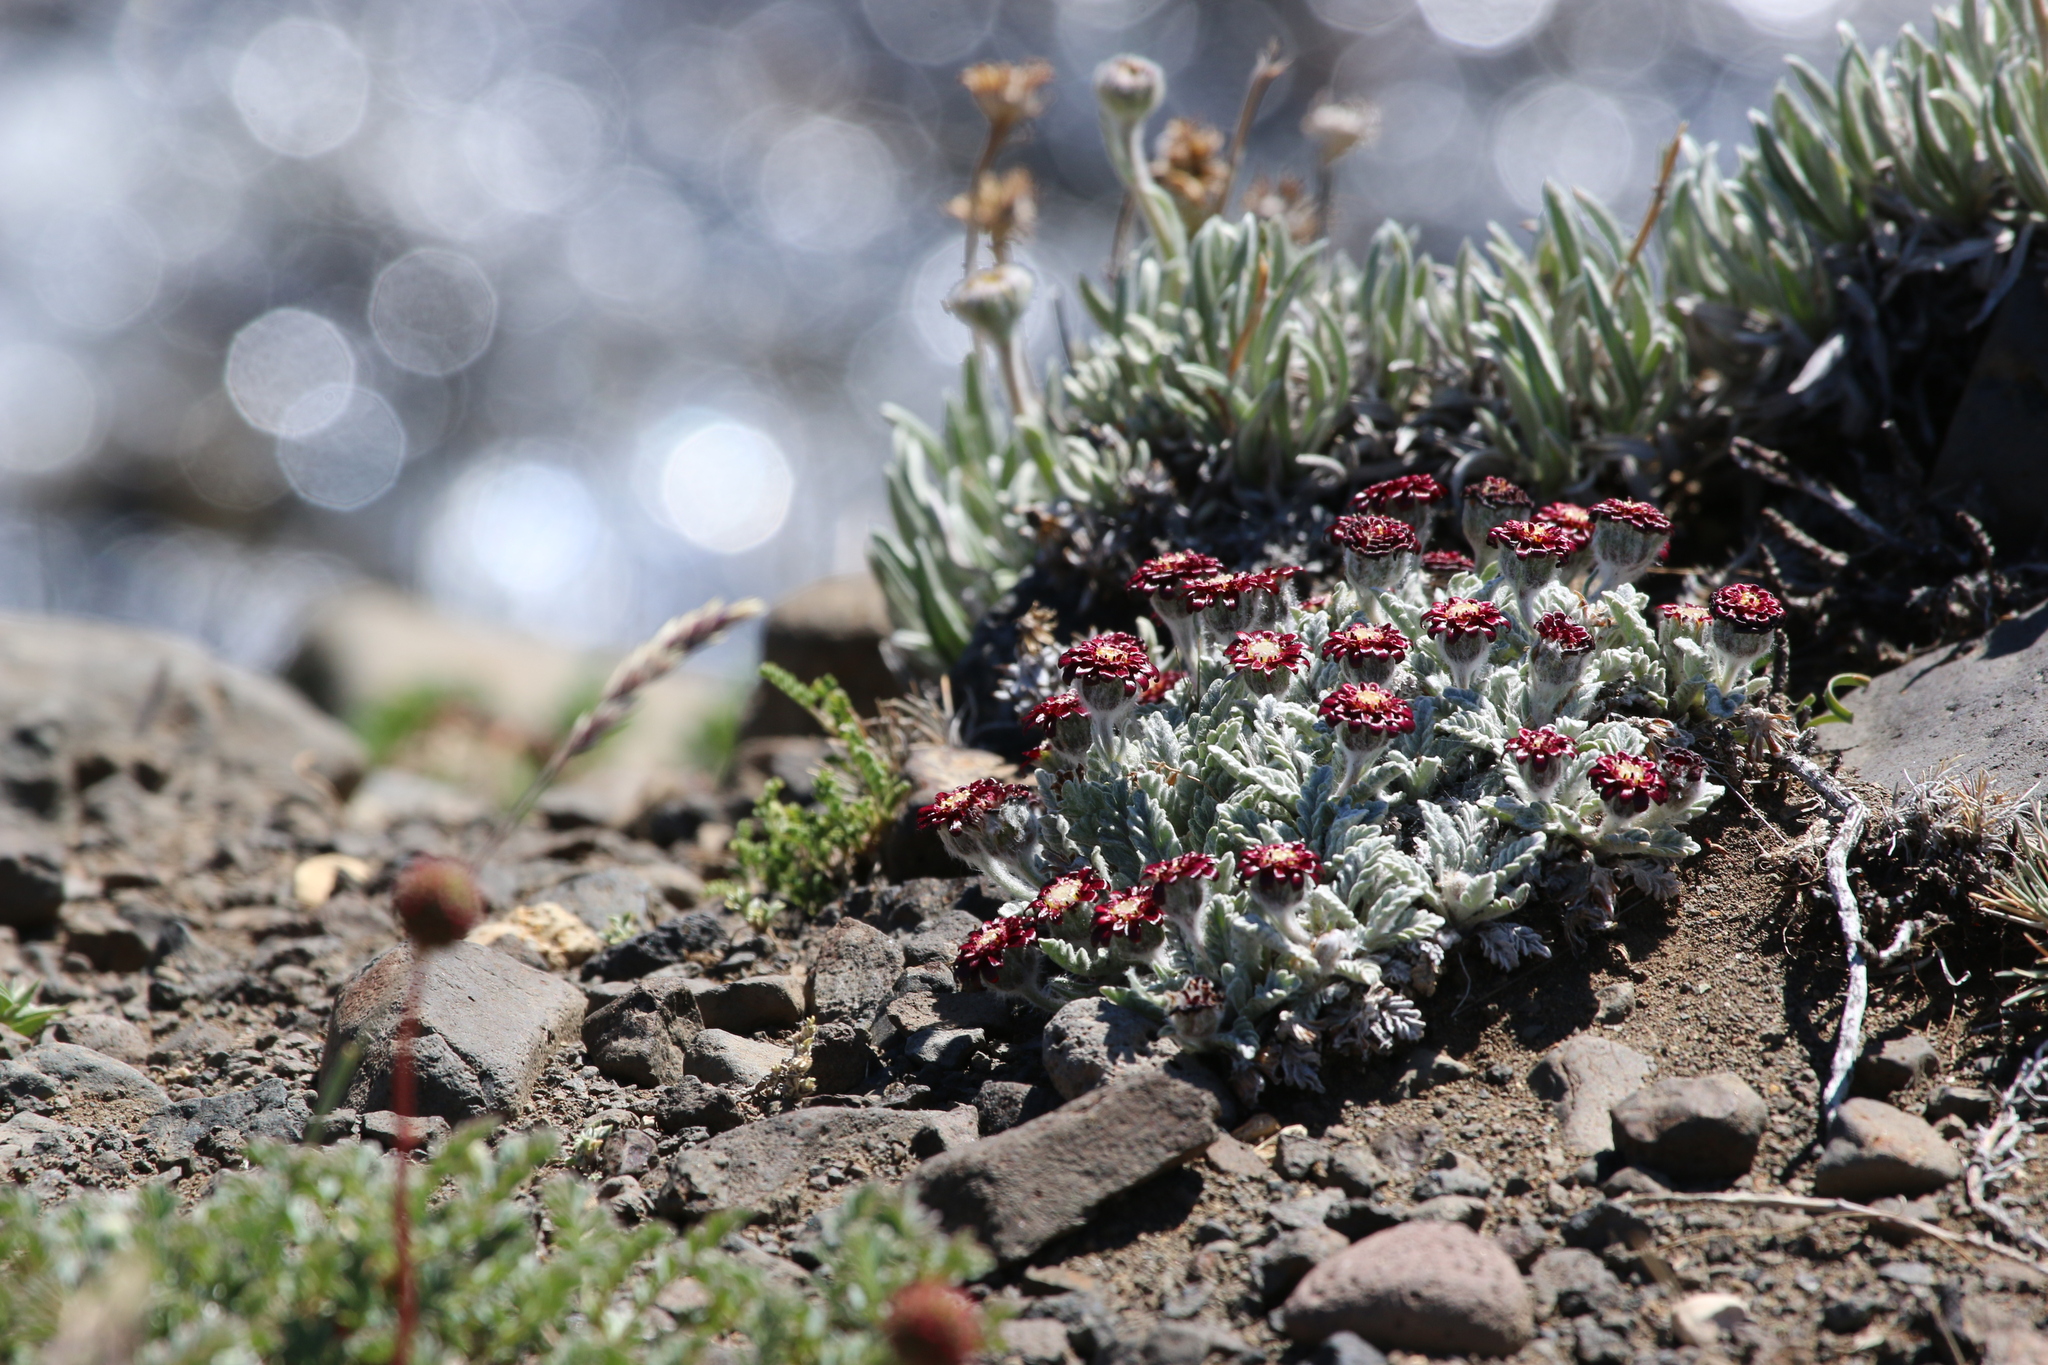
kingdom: Plantae
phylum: Tracheophyta
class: Magnoliopsida
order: Asterales
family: Asteraceae
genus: Leucheria
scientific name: Leucheria purpurea
